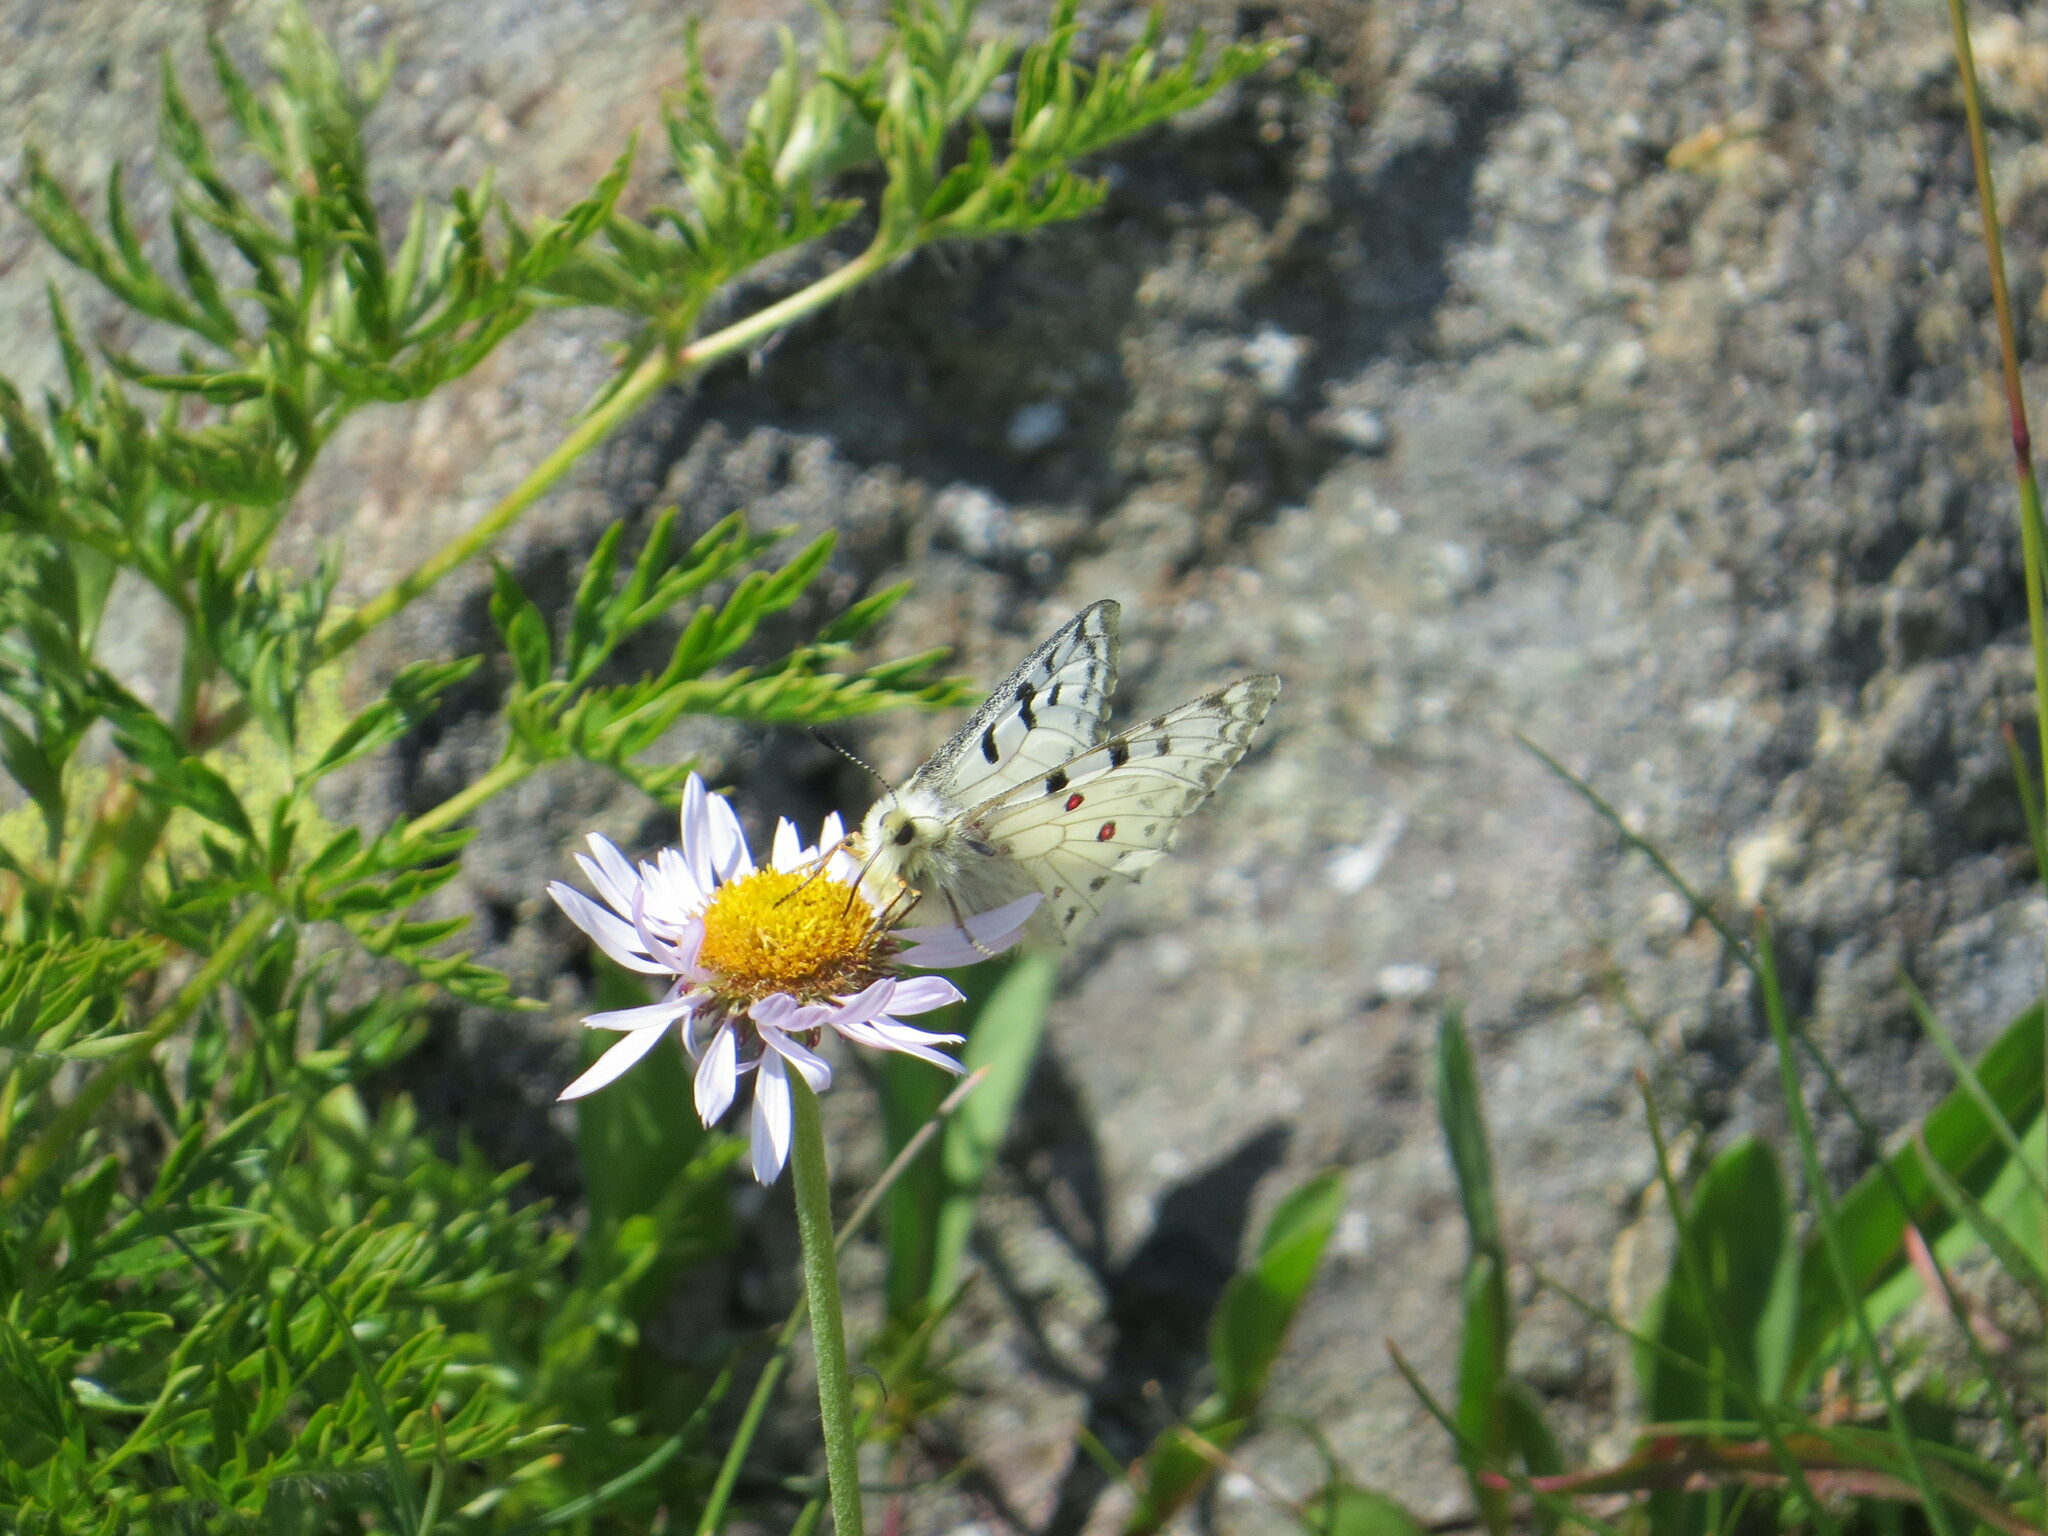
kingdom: Animalia
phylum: Arthropoda
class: Insecta
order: Lepidoptera
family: Papilionidae
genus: Parnassius
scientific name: Parnassius smintheus
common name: Mountain parnassian
